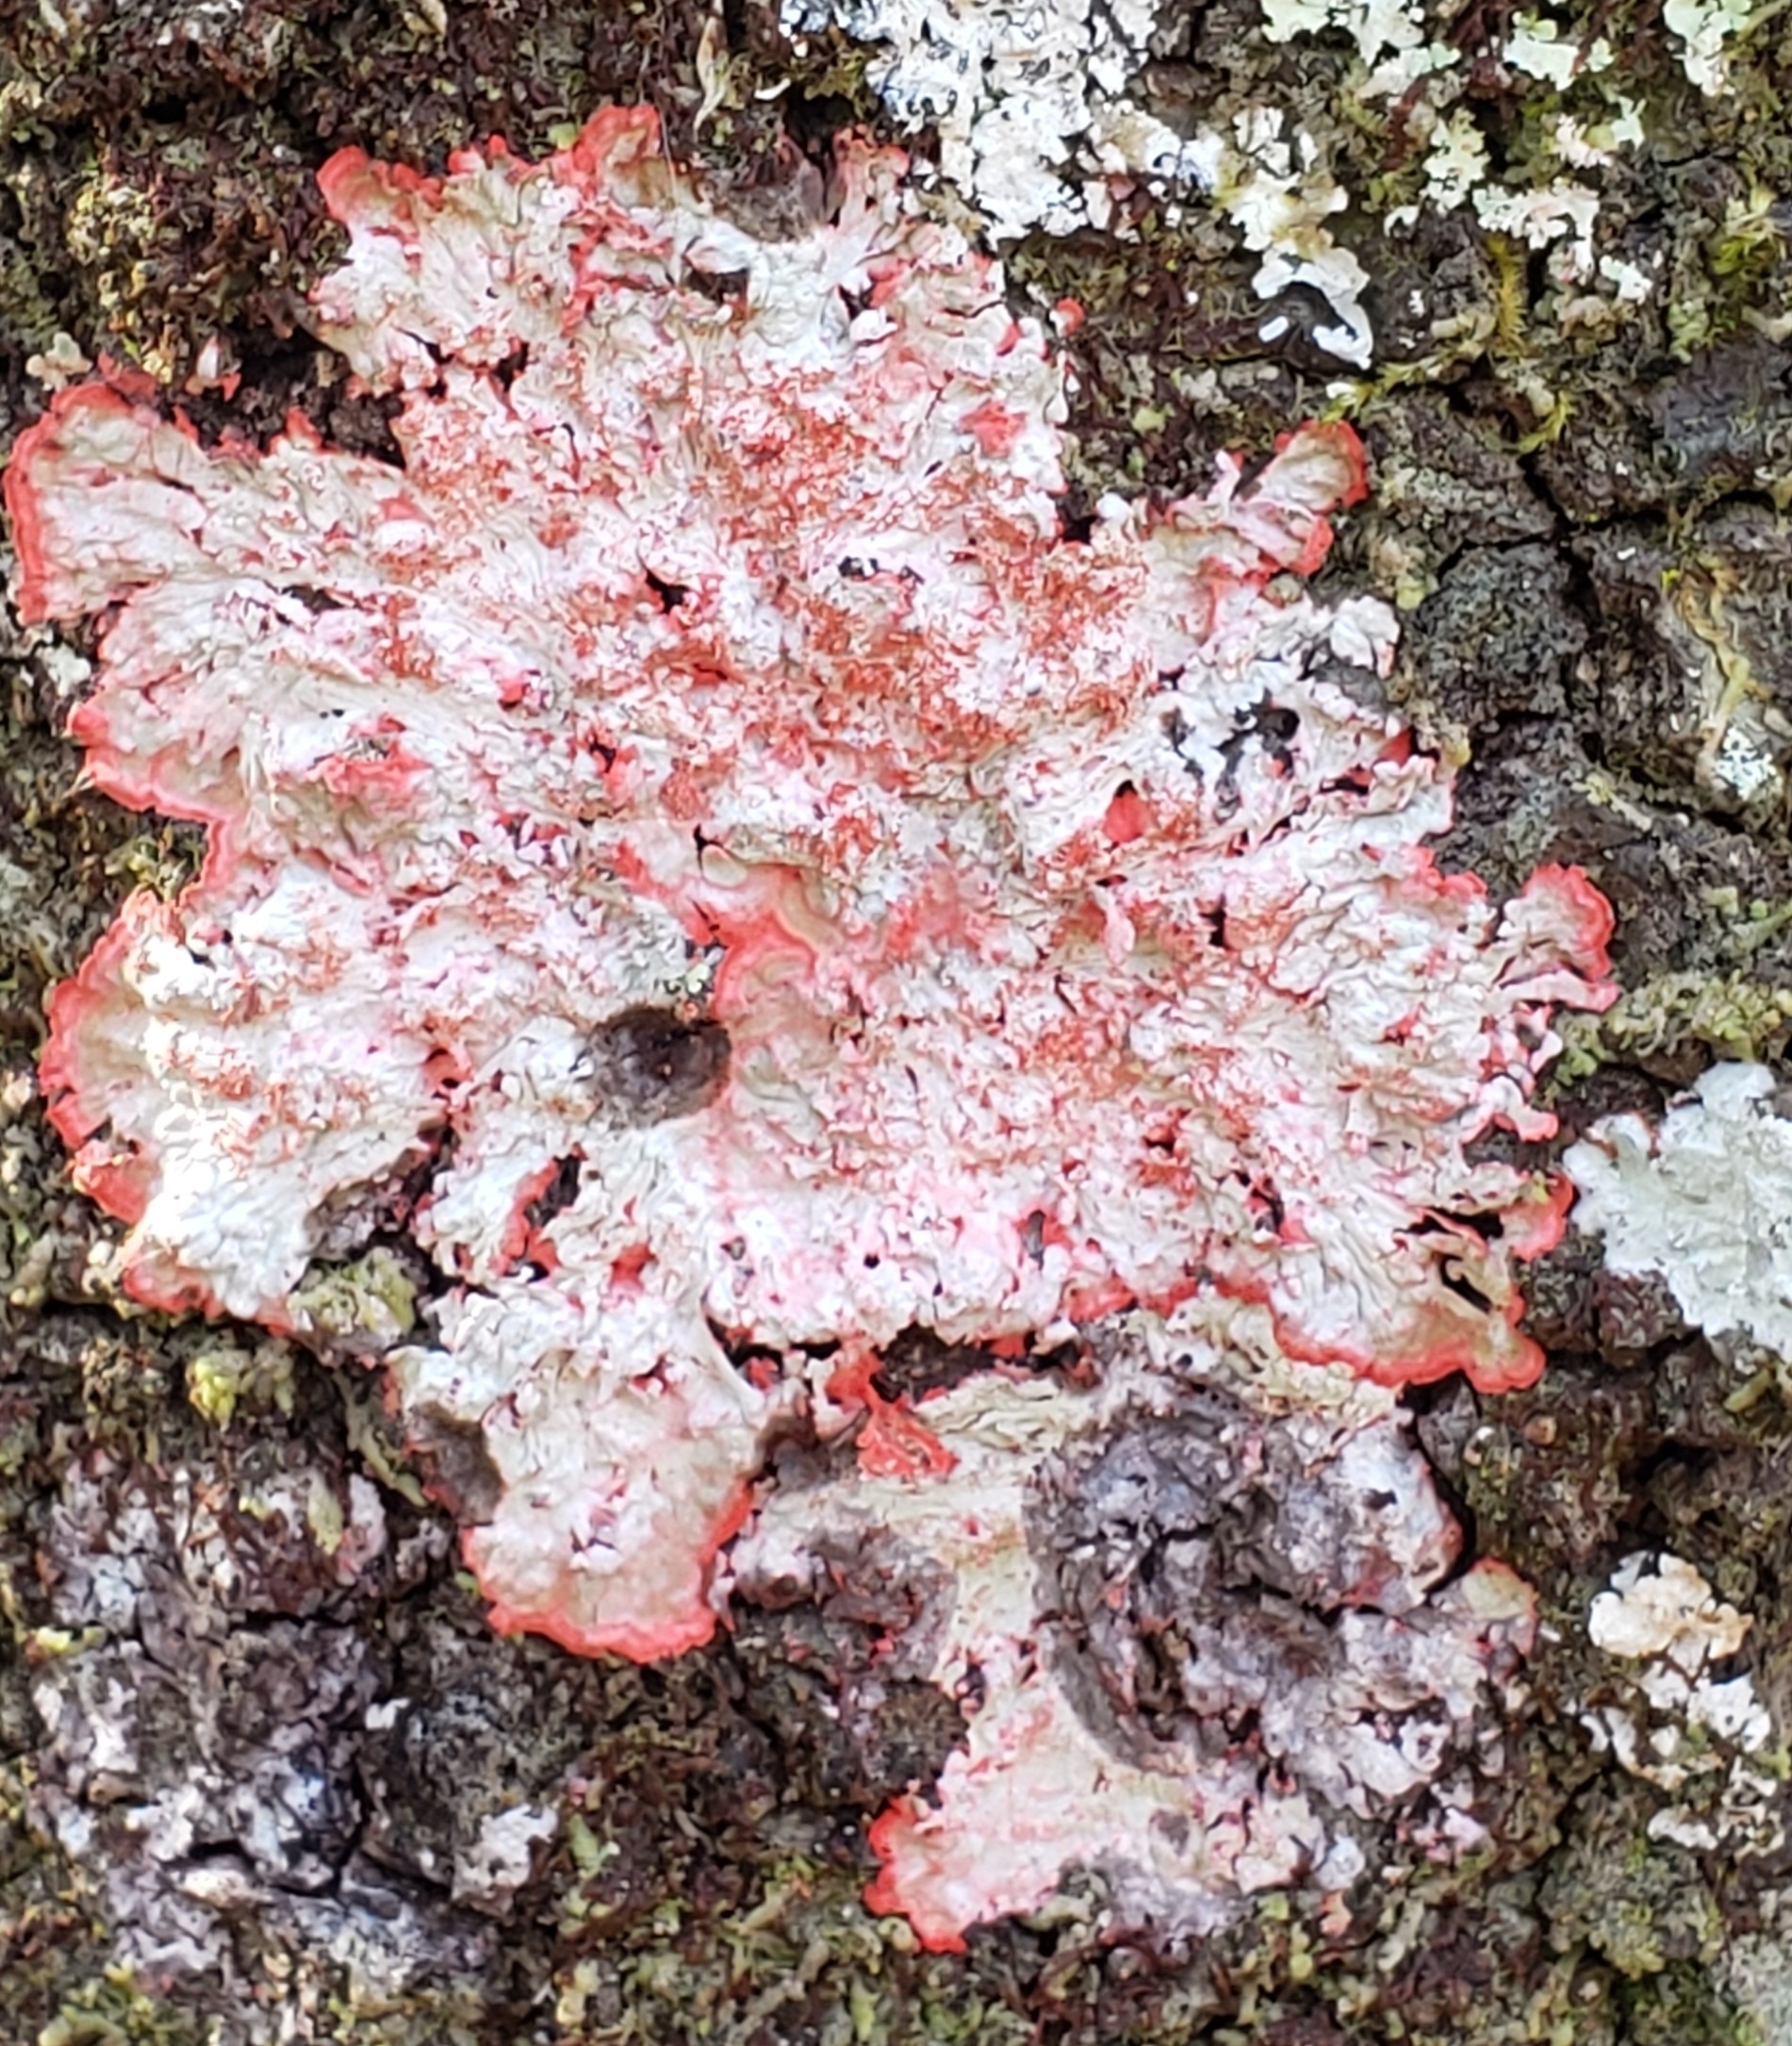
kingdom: Fungi
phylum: Ascomycota
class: Arthoniomycetes
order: Arthoniales
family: Arthoniaceae
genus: Herpothallon
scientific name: Herpothallon rubrocinctum
